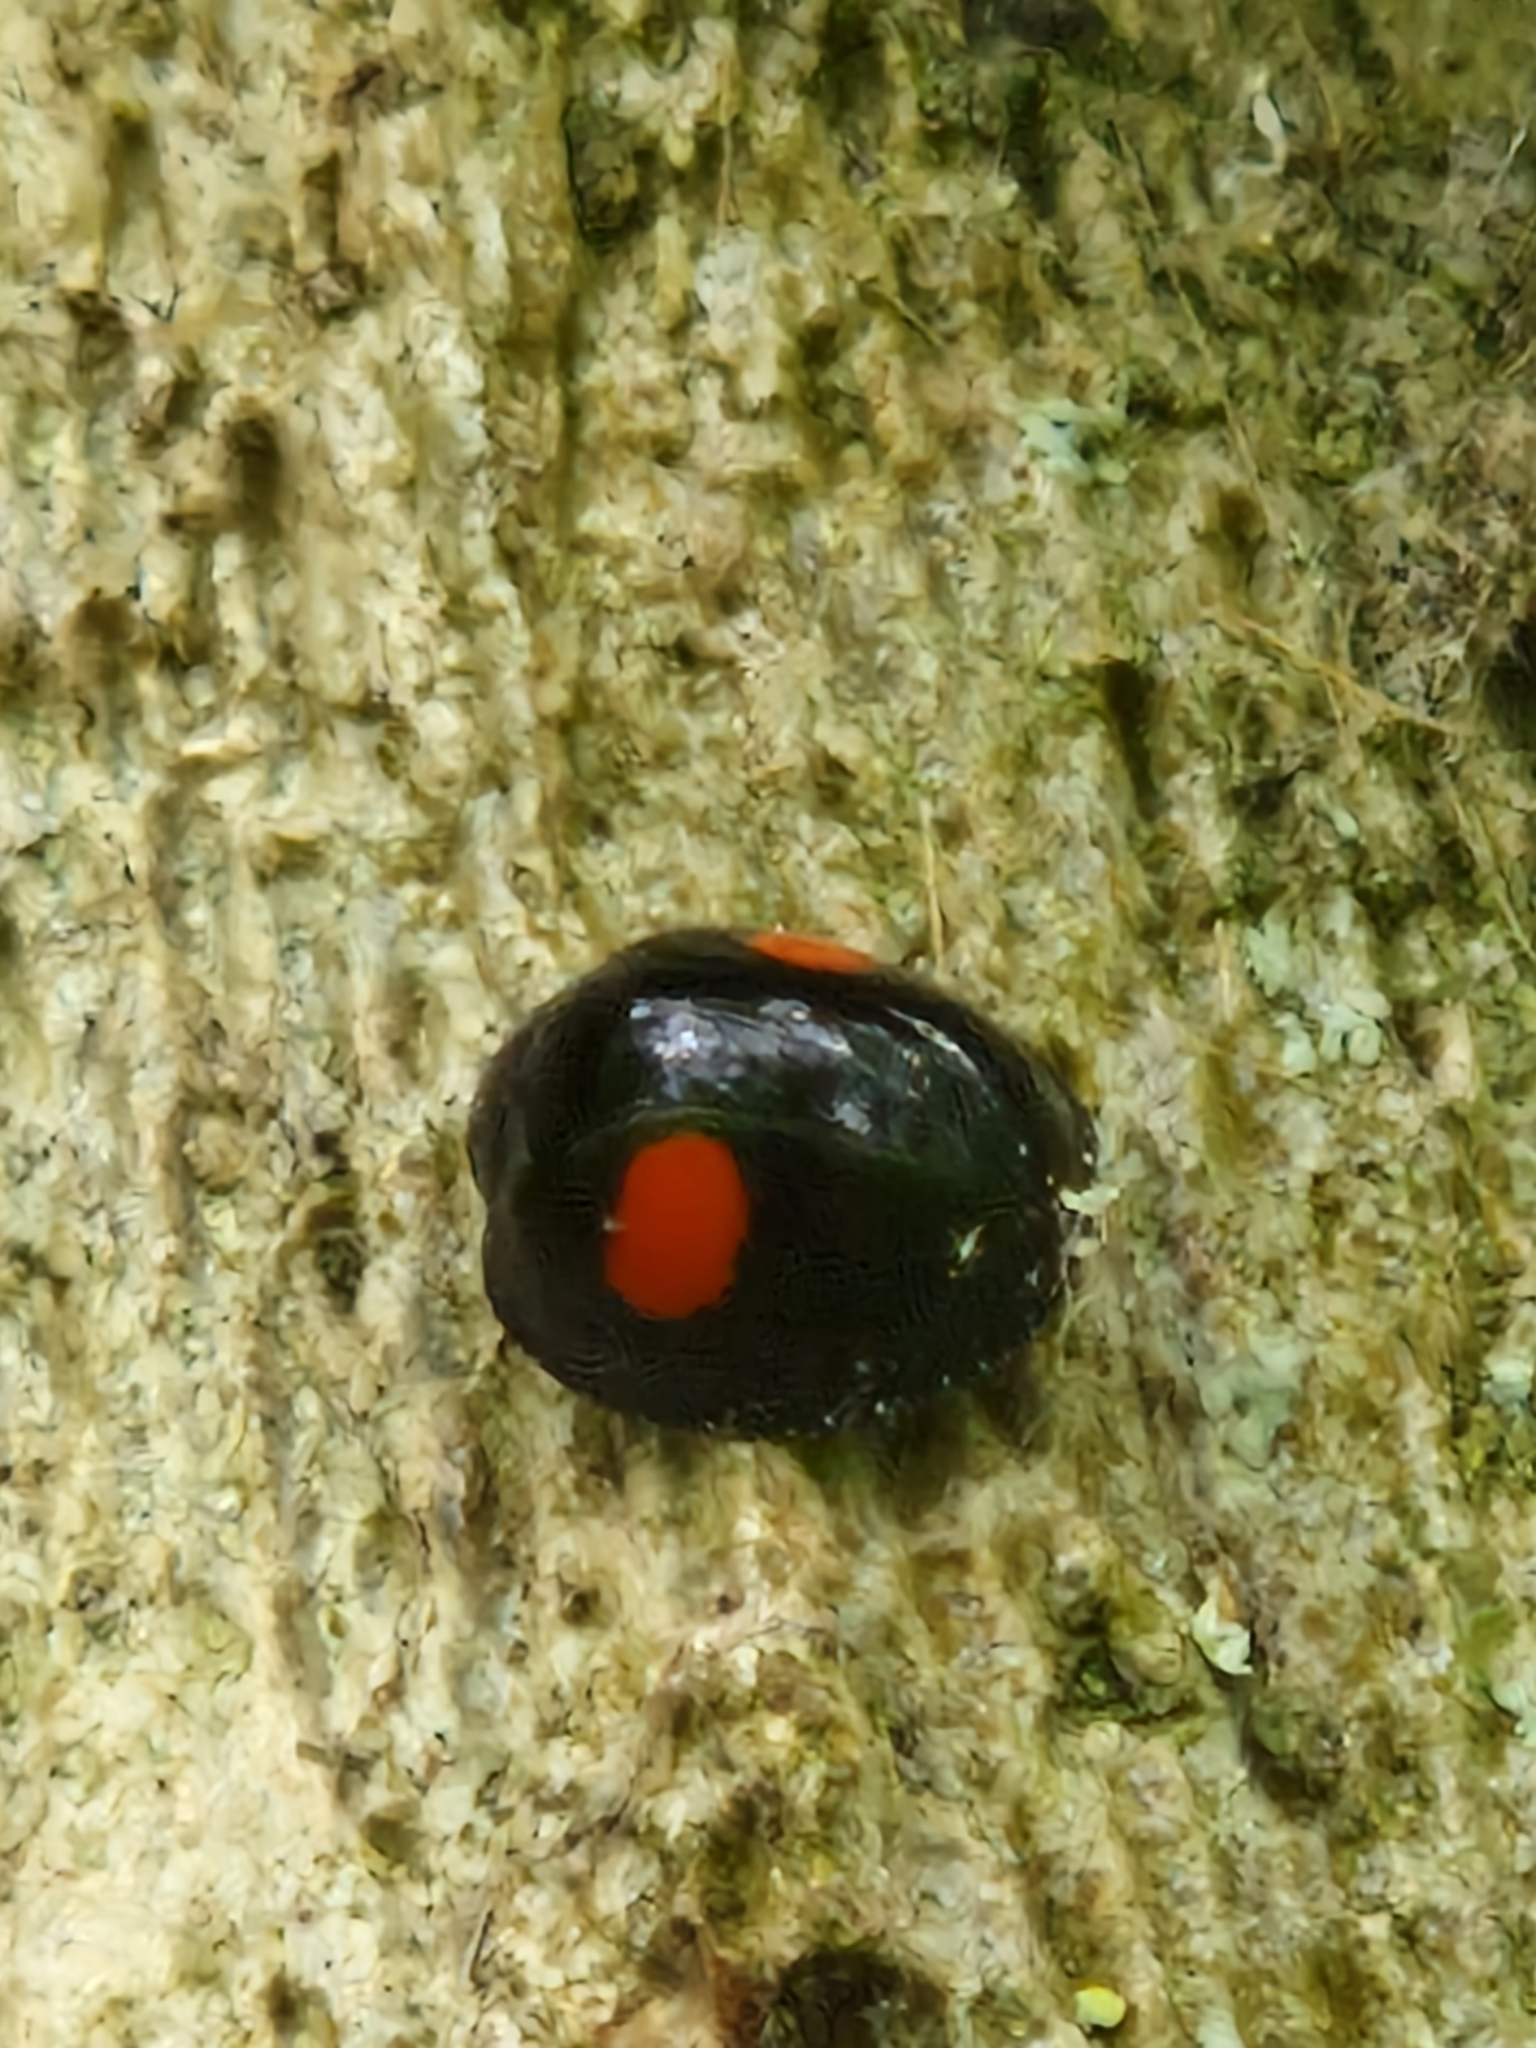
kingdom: Animalia
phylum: Arthropoda
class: Insecta
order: Coleoptera
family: Coccinellidae
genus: Chilocorus
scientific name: Chilocorus renipustulatus
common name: Kidney-spot ladybird
